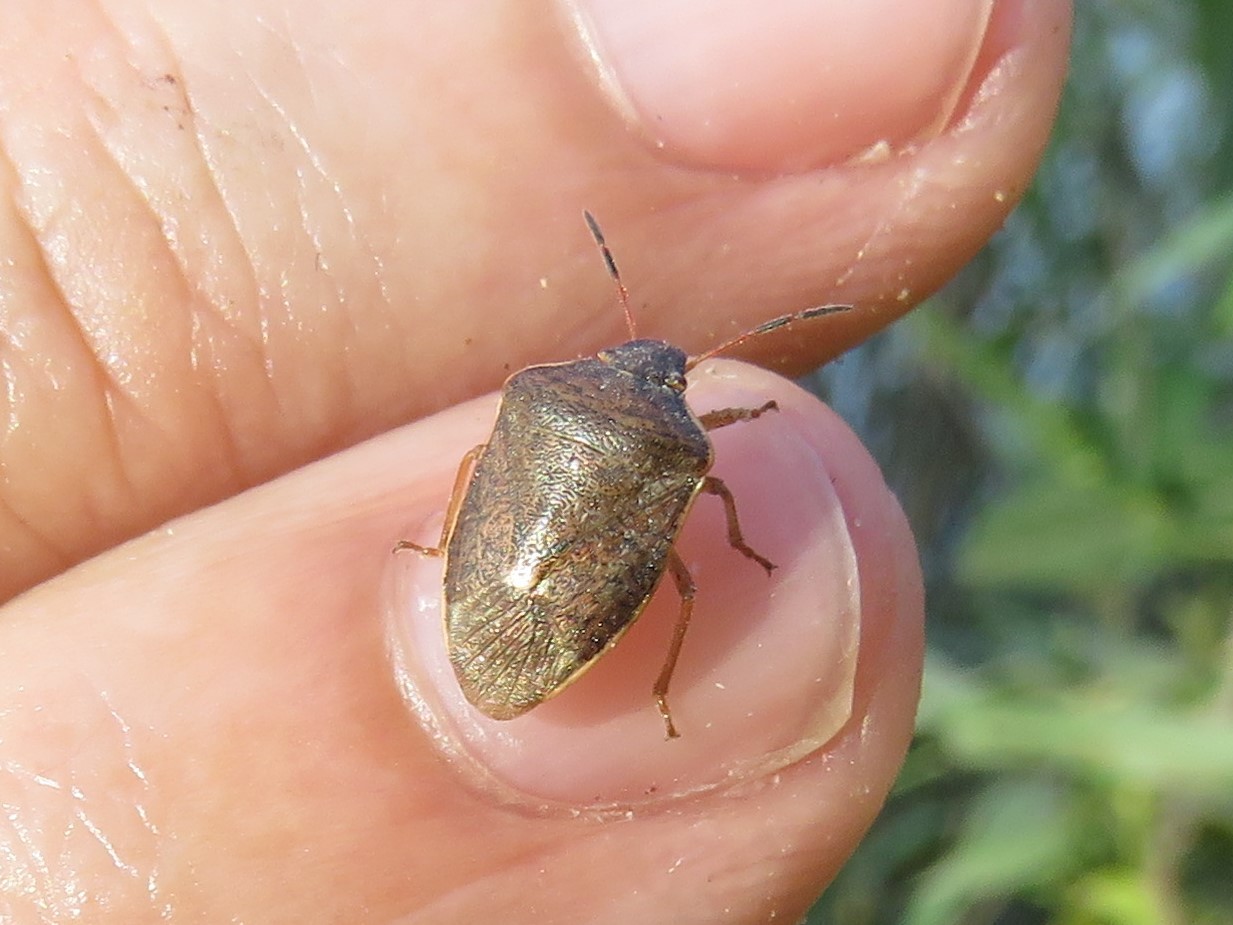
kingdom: Animalia
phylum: Arthropoda
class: Insecta
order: Hemiptera
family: Pentatomidae
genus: Holcostethus
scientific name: Holcostethus limbolarius
